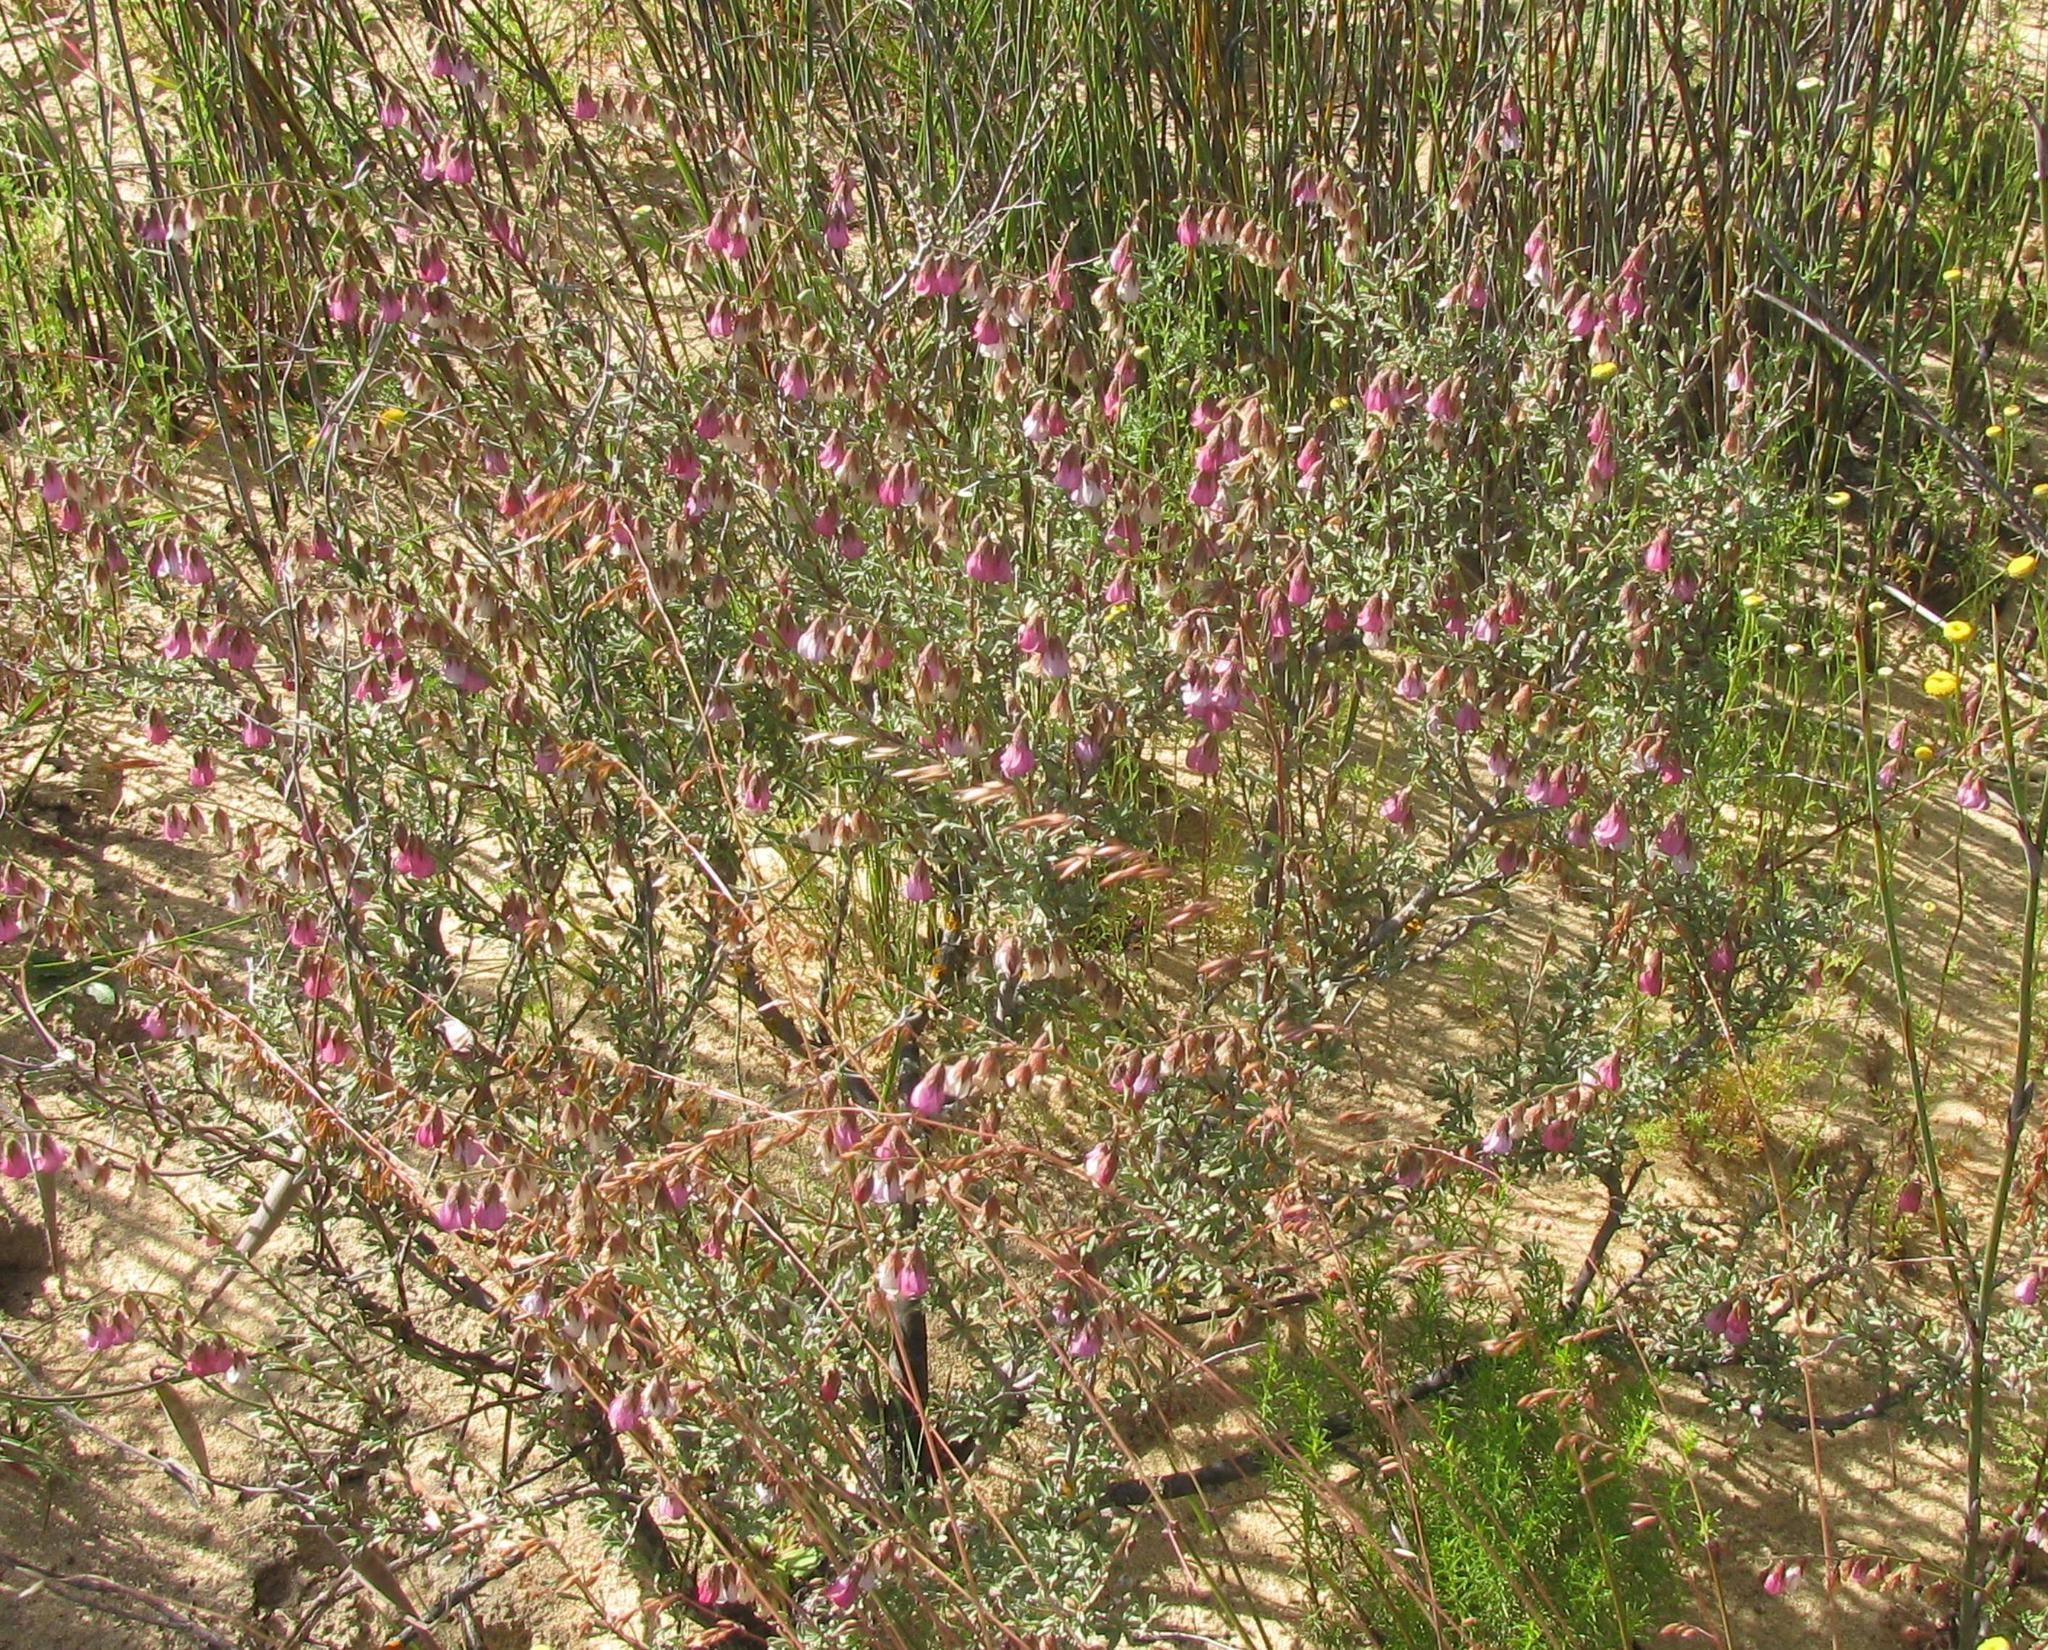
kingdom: Plantae
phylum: Tracheophyta
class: Magnoliopsida
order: Malvales
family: Malvaceae
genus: Hermannia
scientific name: Hermannia trifurca
